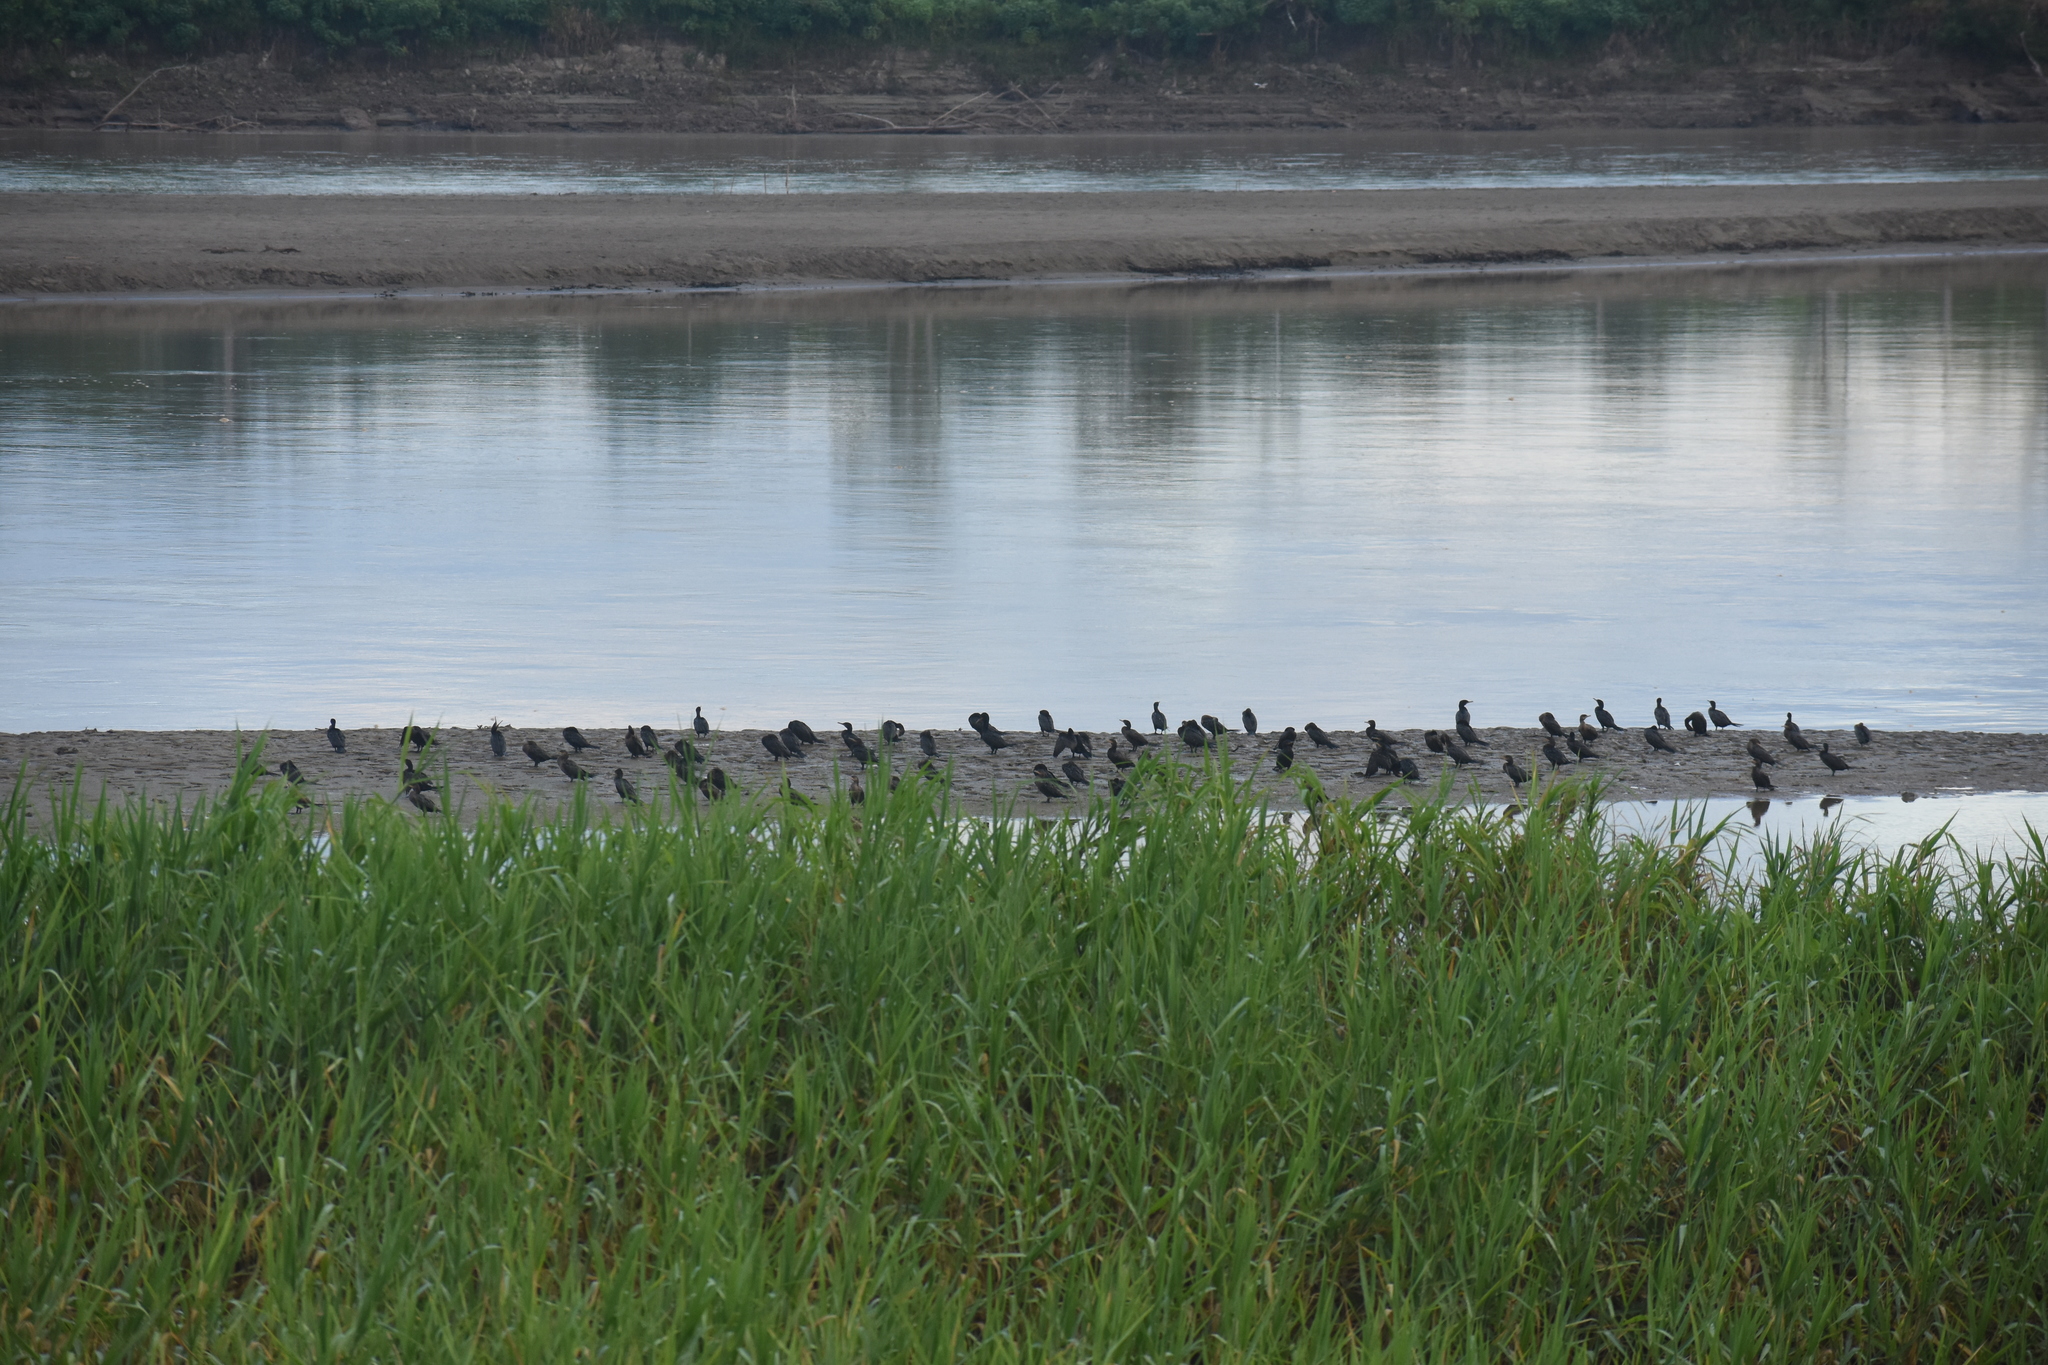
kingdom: Animalia
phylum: Chordata
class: Aves
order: Suliformes
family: Phalacrocoracidae
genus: Phalacrocorax
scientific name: Phalacrocorax brasilianus
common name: Neotropic cormorant
